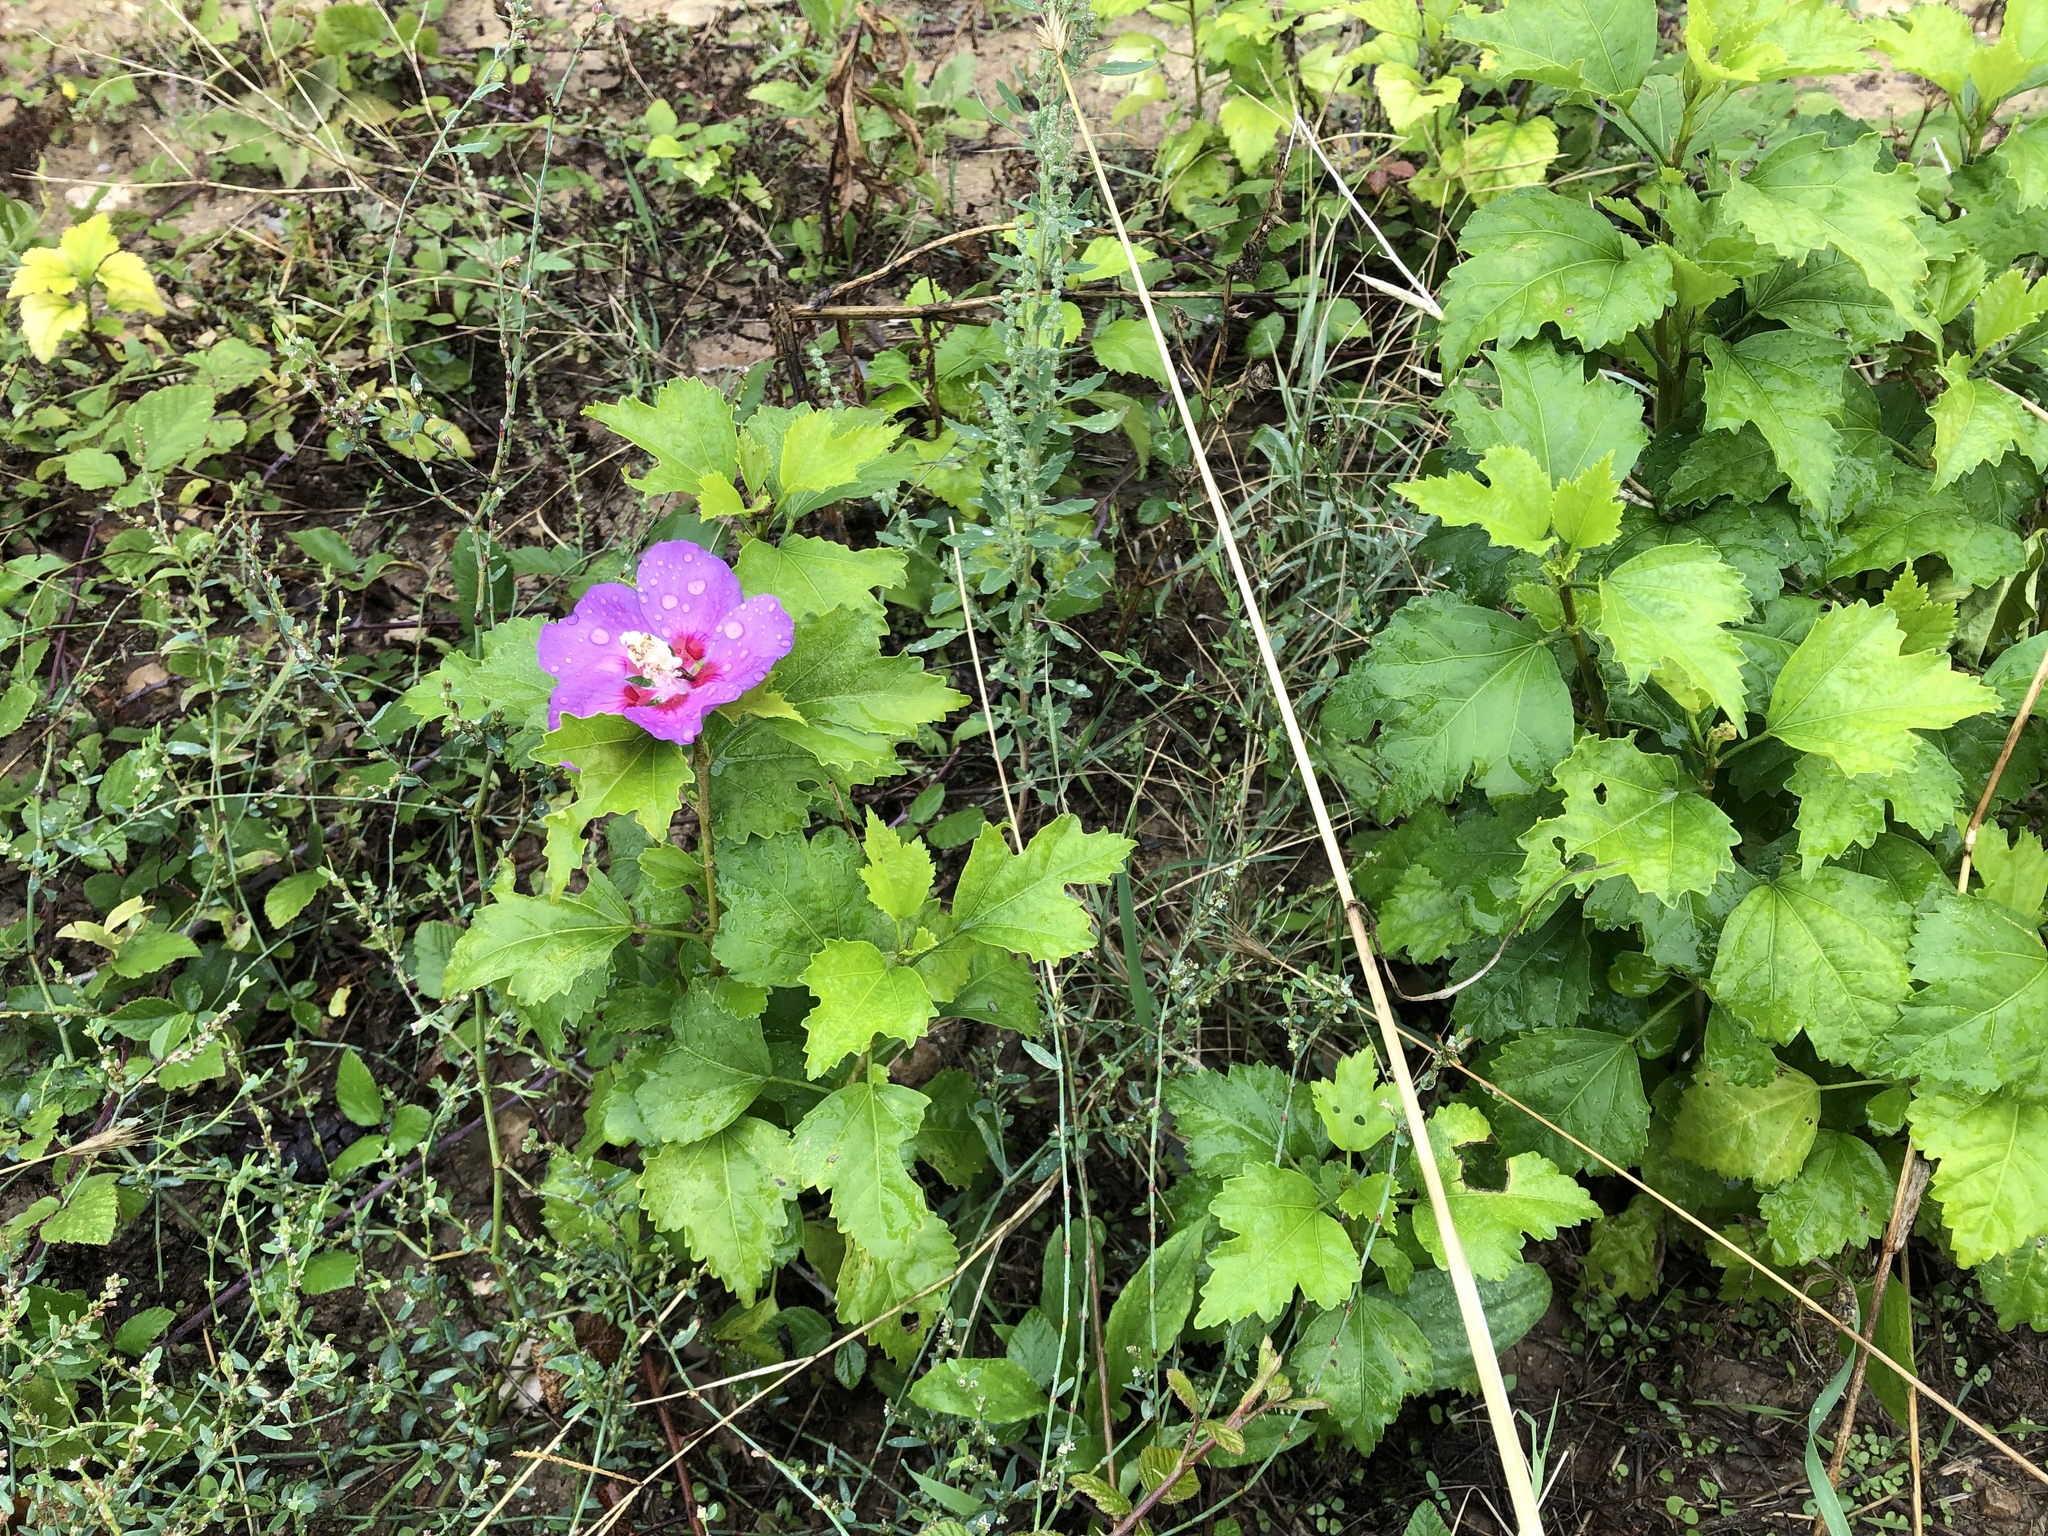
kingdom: Plantae
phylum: Tracheophyta
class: Magnoliopsida
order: Malvales
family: Malvaceae
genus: Hibiscus
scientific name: Hibiscus syriacus
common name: Syrian ketmia
